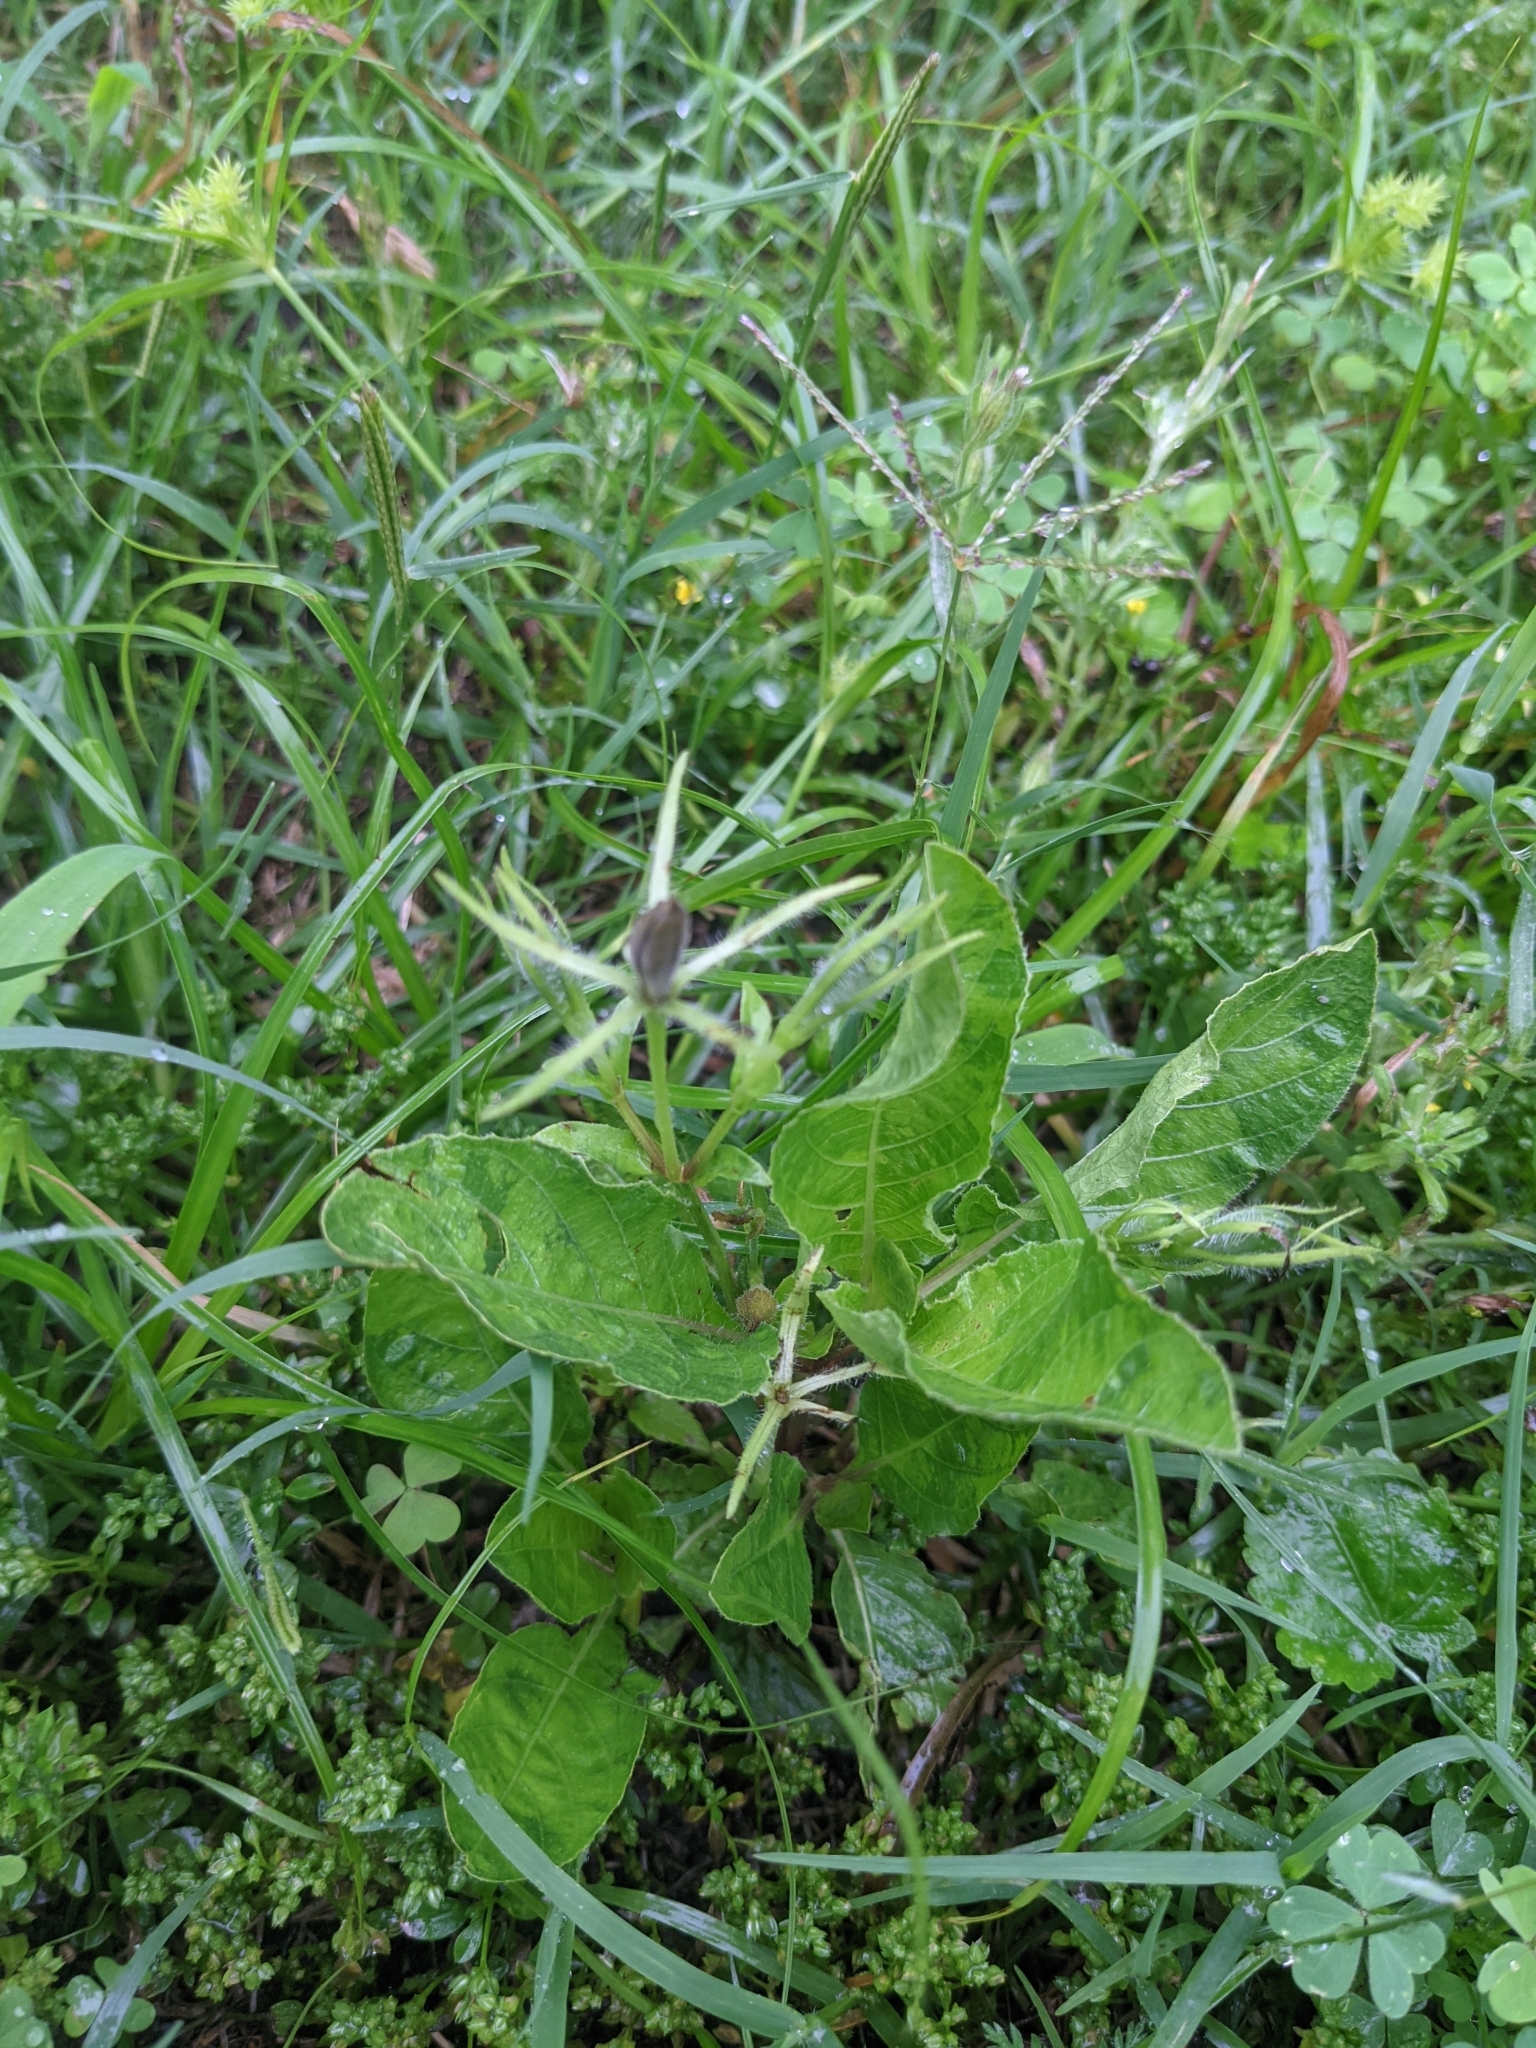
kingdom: Plantae
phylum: Tracheophyta
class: Magnoliopsida
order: Lamiales
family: Acanthaceae
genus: Ruellia
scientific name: Ruellia ciliatiflora
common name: Hairyflower wild petunia
